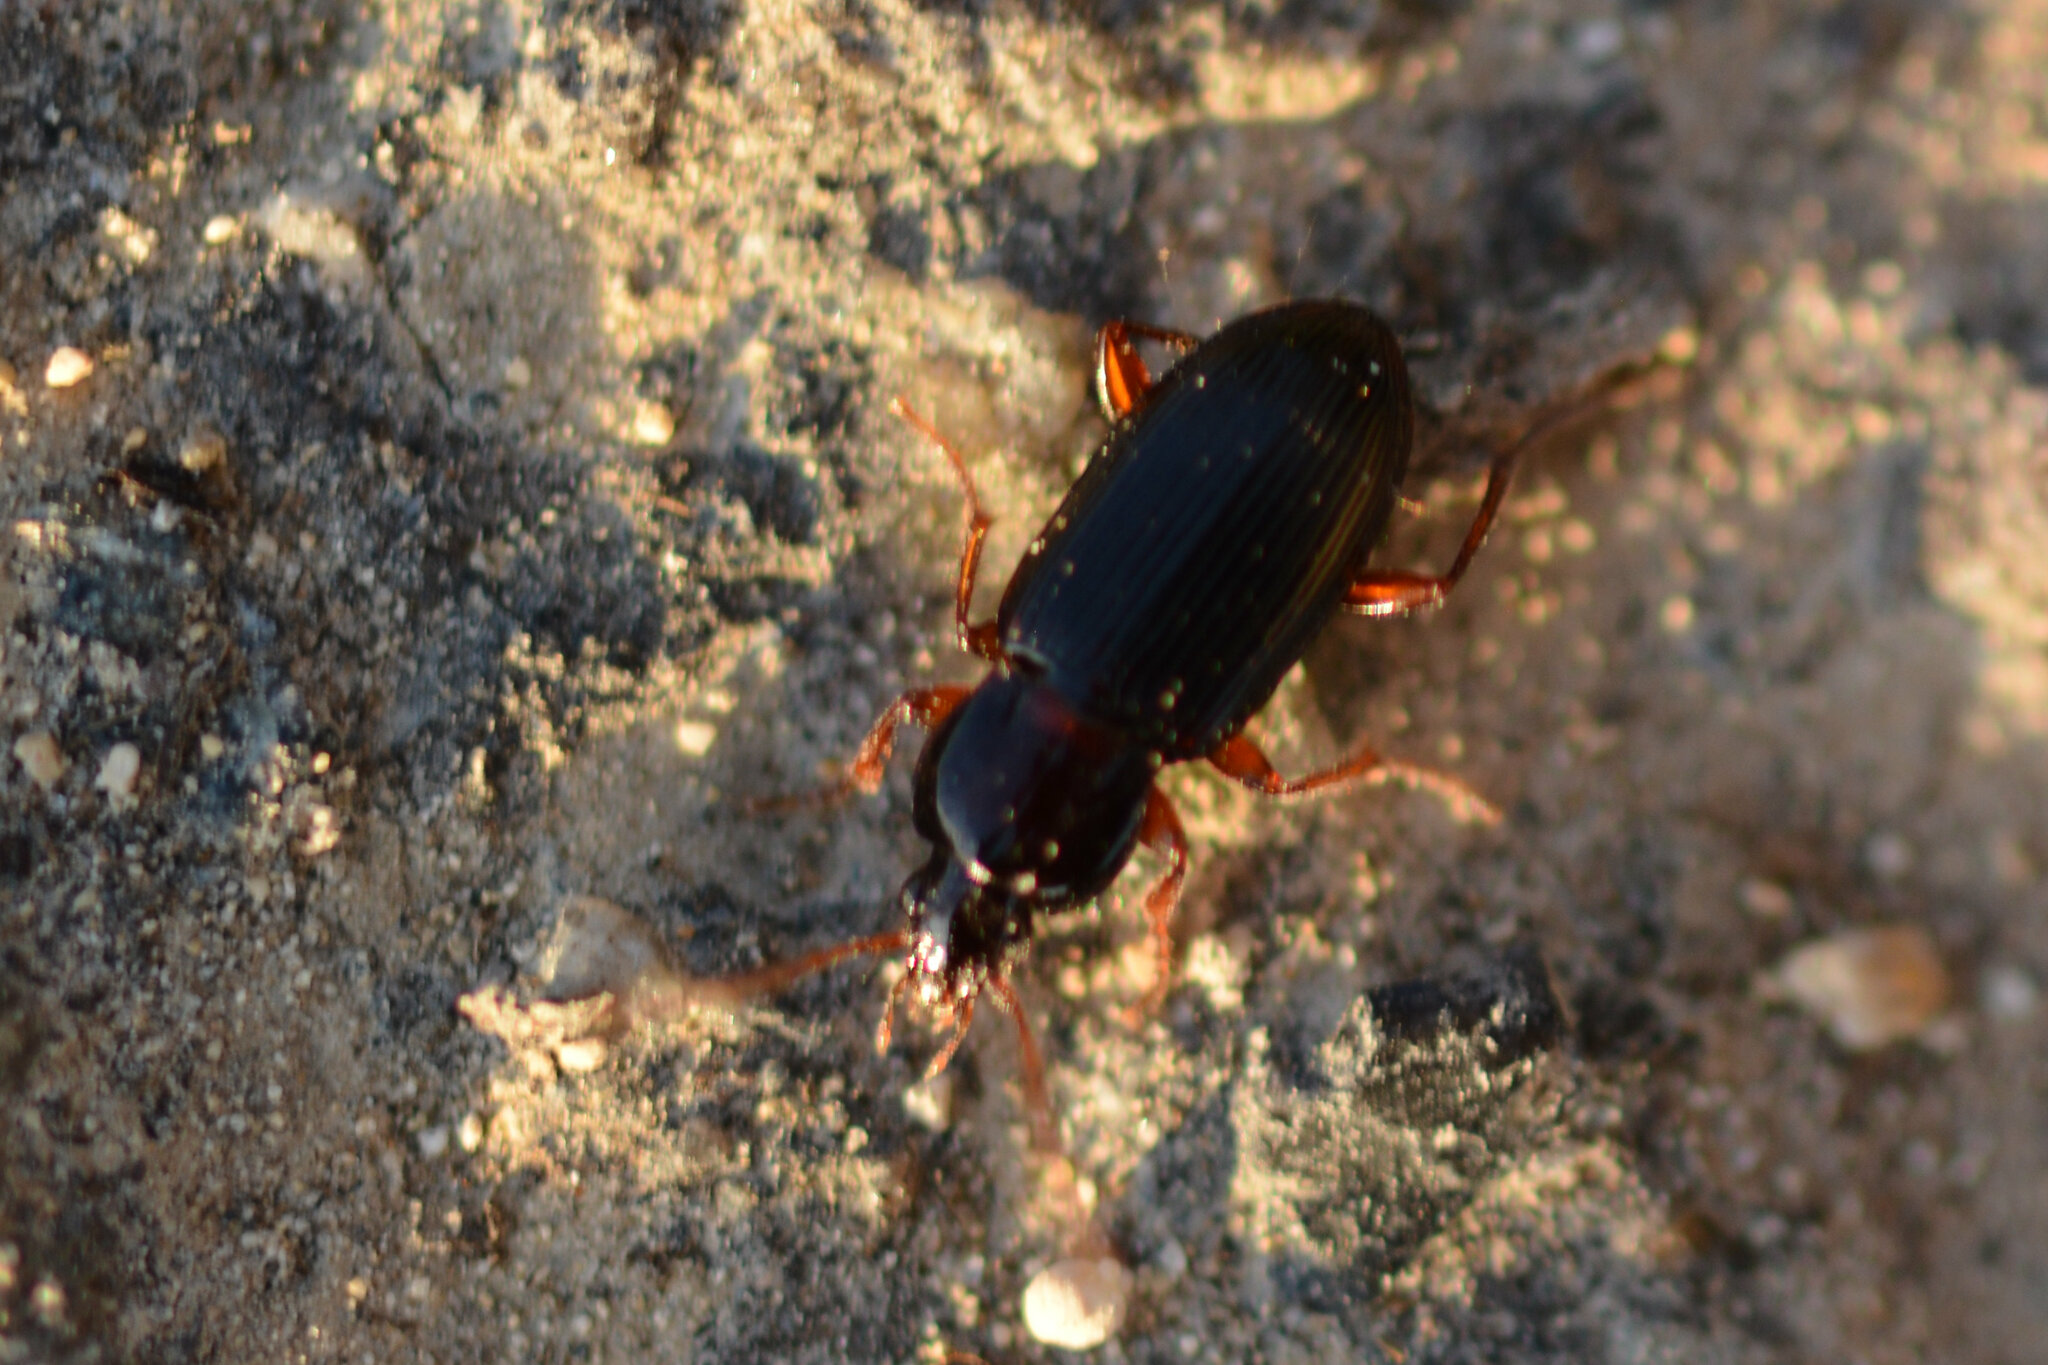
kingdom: Animalia
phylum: Arthropoda
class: Insecta
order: Coleoptera
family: Carabidae
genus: Pedius
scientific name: Pedius longicollis
